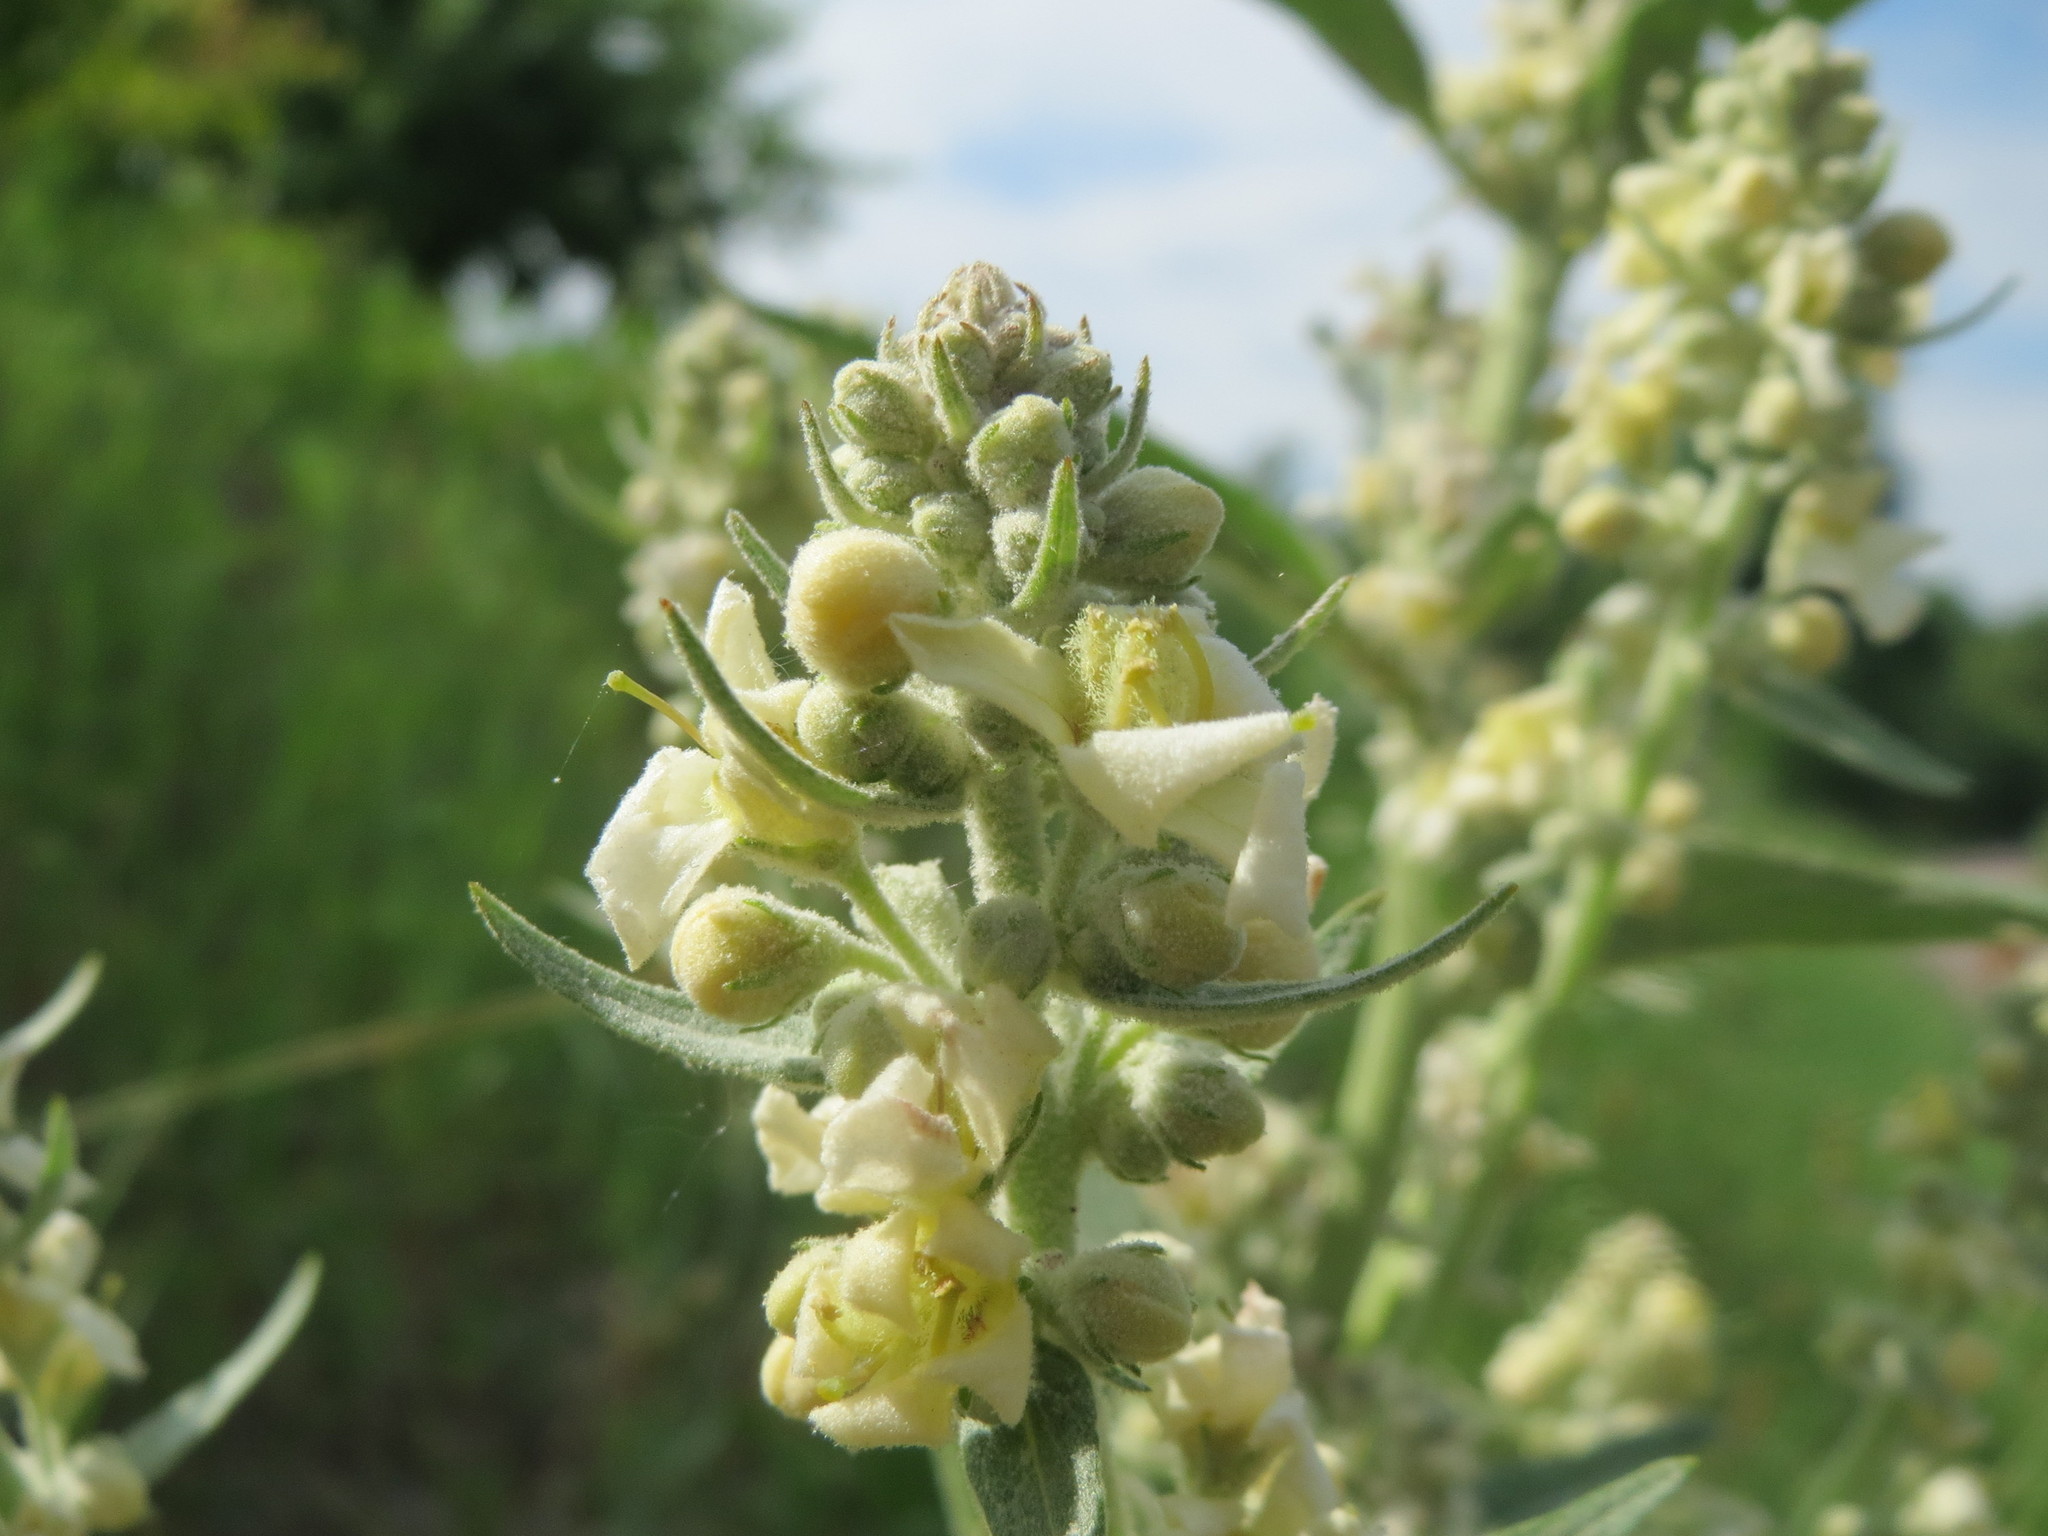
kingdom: Plantae
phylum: Tracheophyta
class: Magnoliopsida
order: Lamiales
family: Scrophulariaceae
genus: Verbascum
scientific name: Verbascum lychnitis
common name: White mullein
